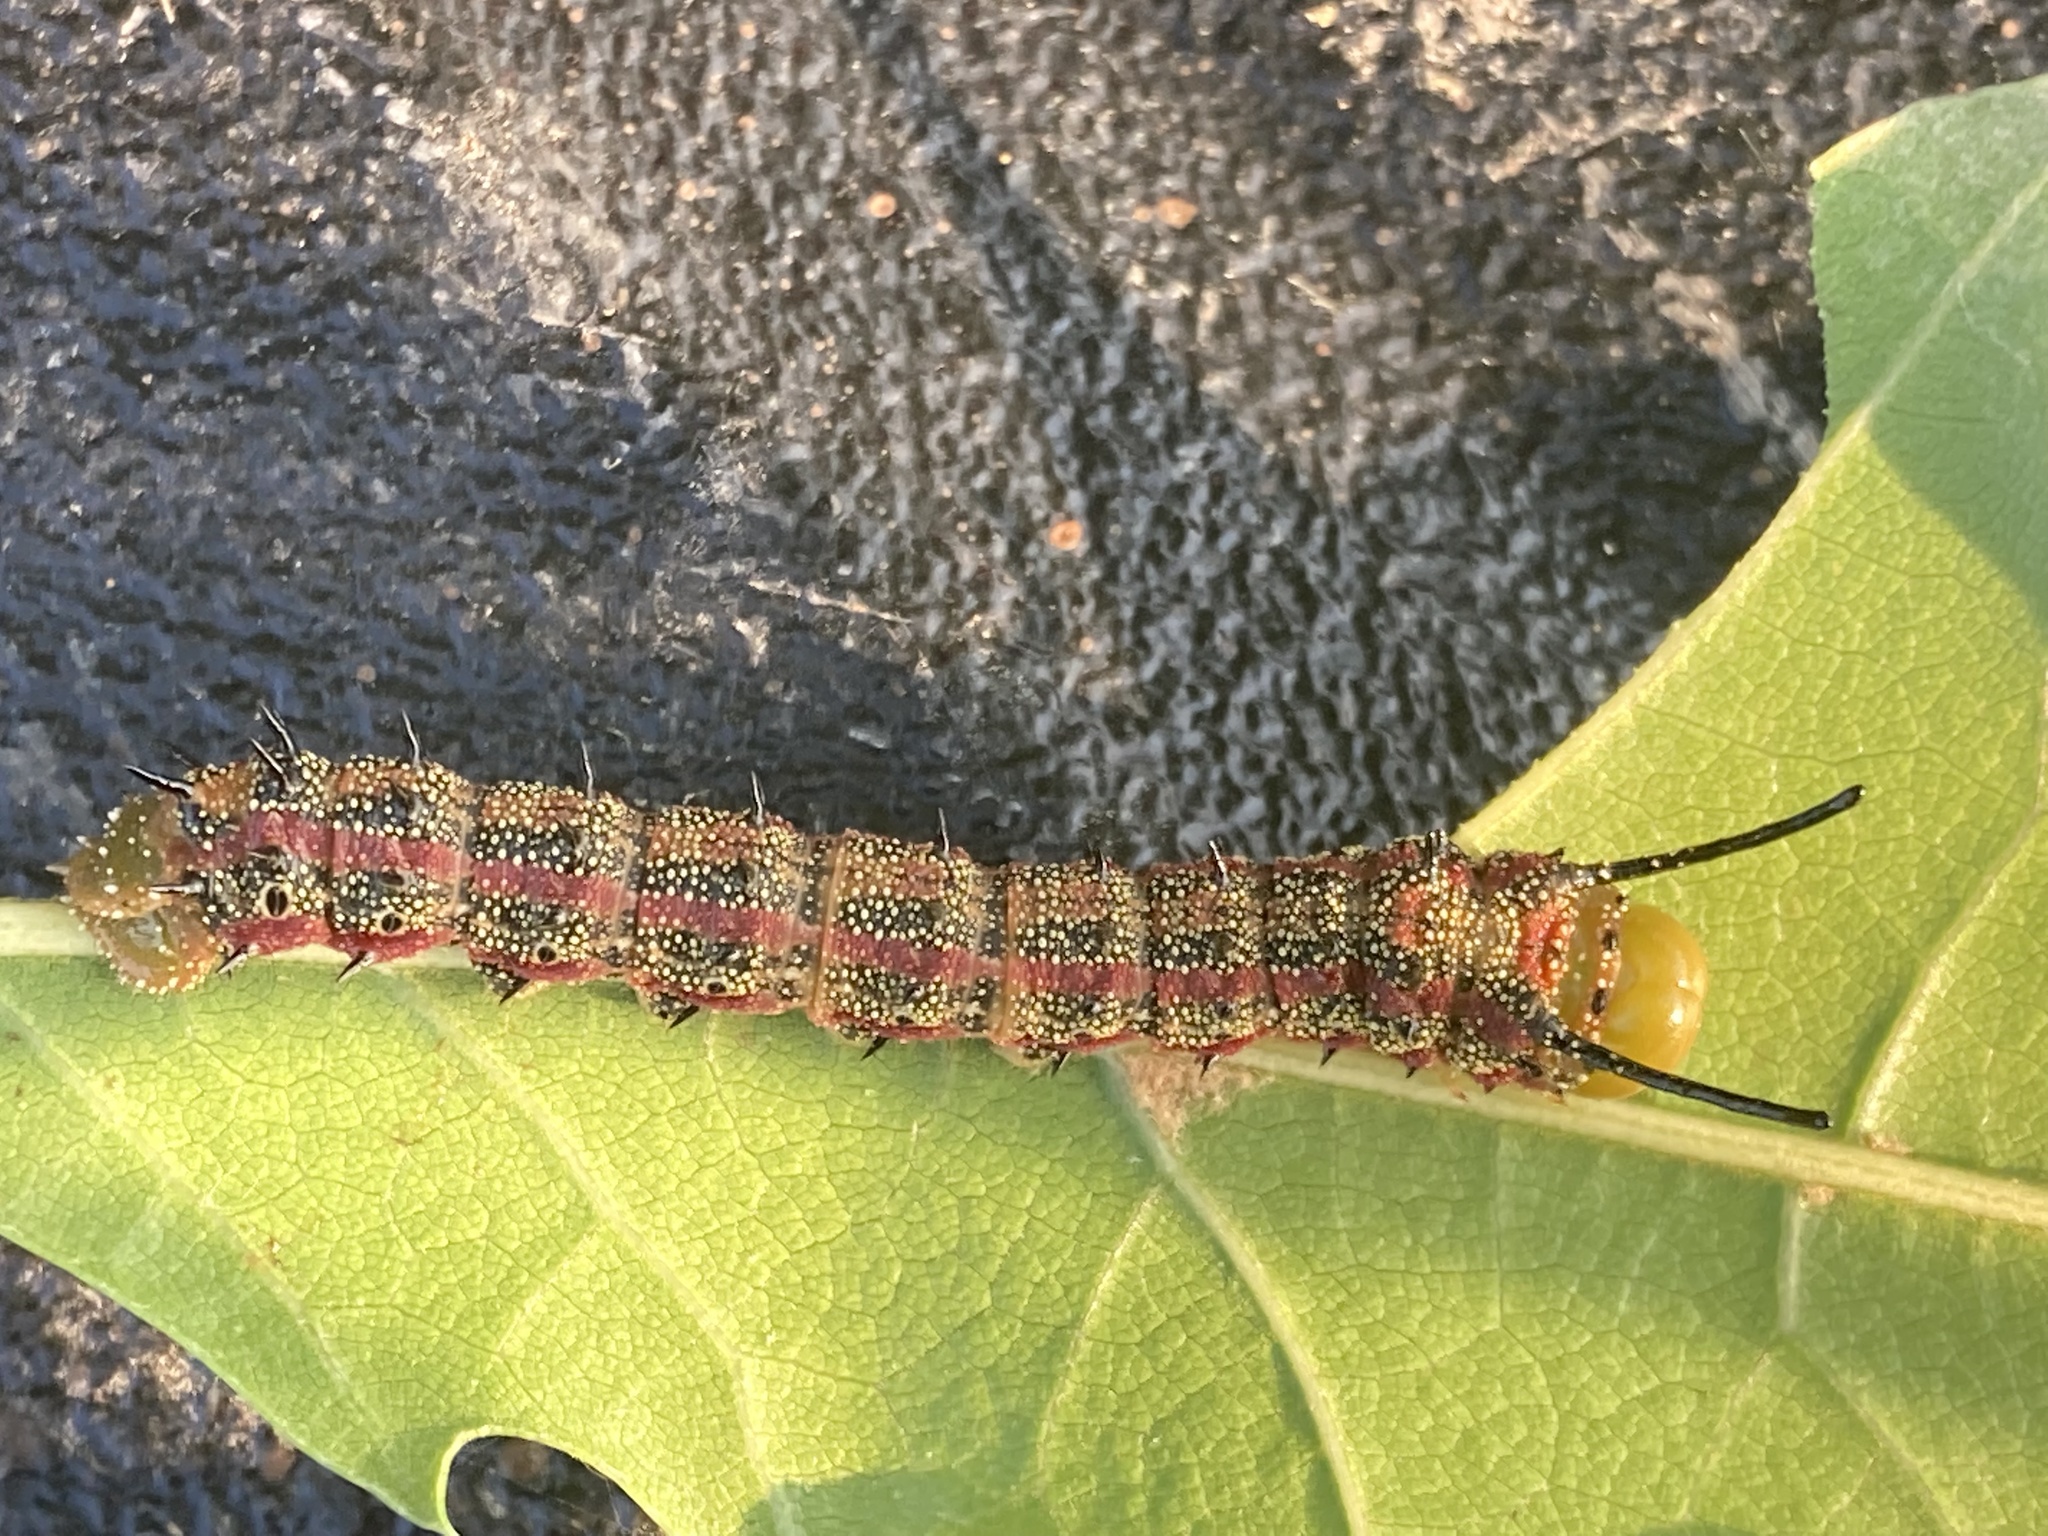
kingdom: Animalia
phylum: Arthropoda
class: Insecta
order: Lepidoptera
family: Saturniidae
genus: Anisota
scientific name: Anisota virginiensis
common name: Pink striped oakworm moth
